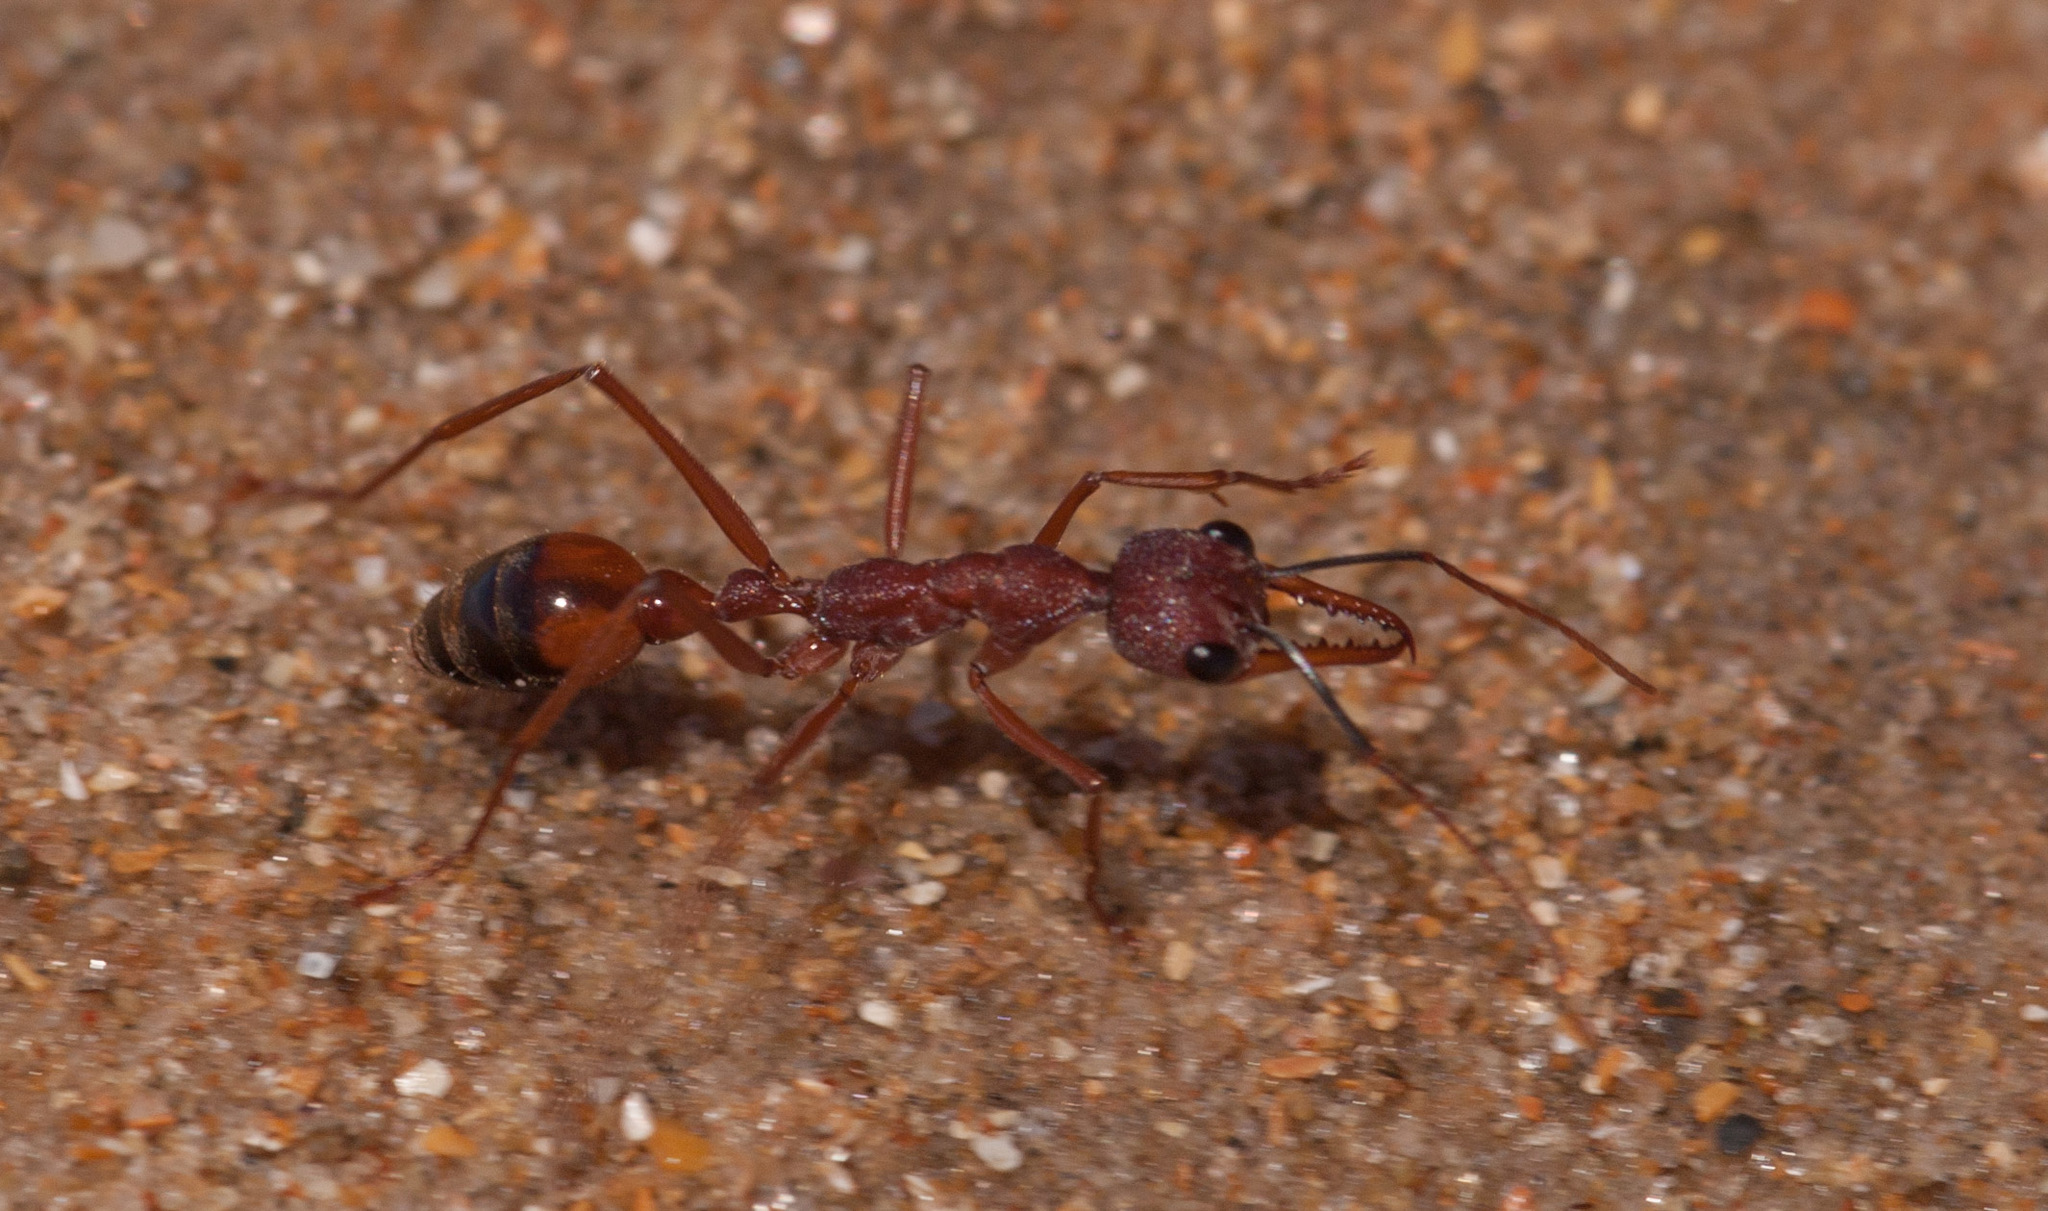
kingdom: Animalia
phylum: Arthropoda
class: Insecta
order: Hymenoptera
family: Formicidae
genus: Myrmecia
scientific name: Myrmecia nigriscapa
